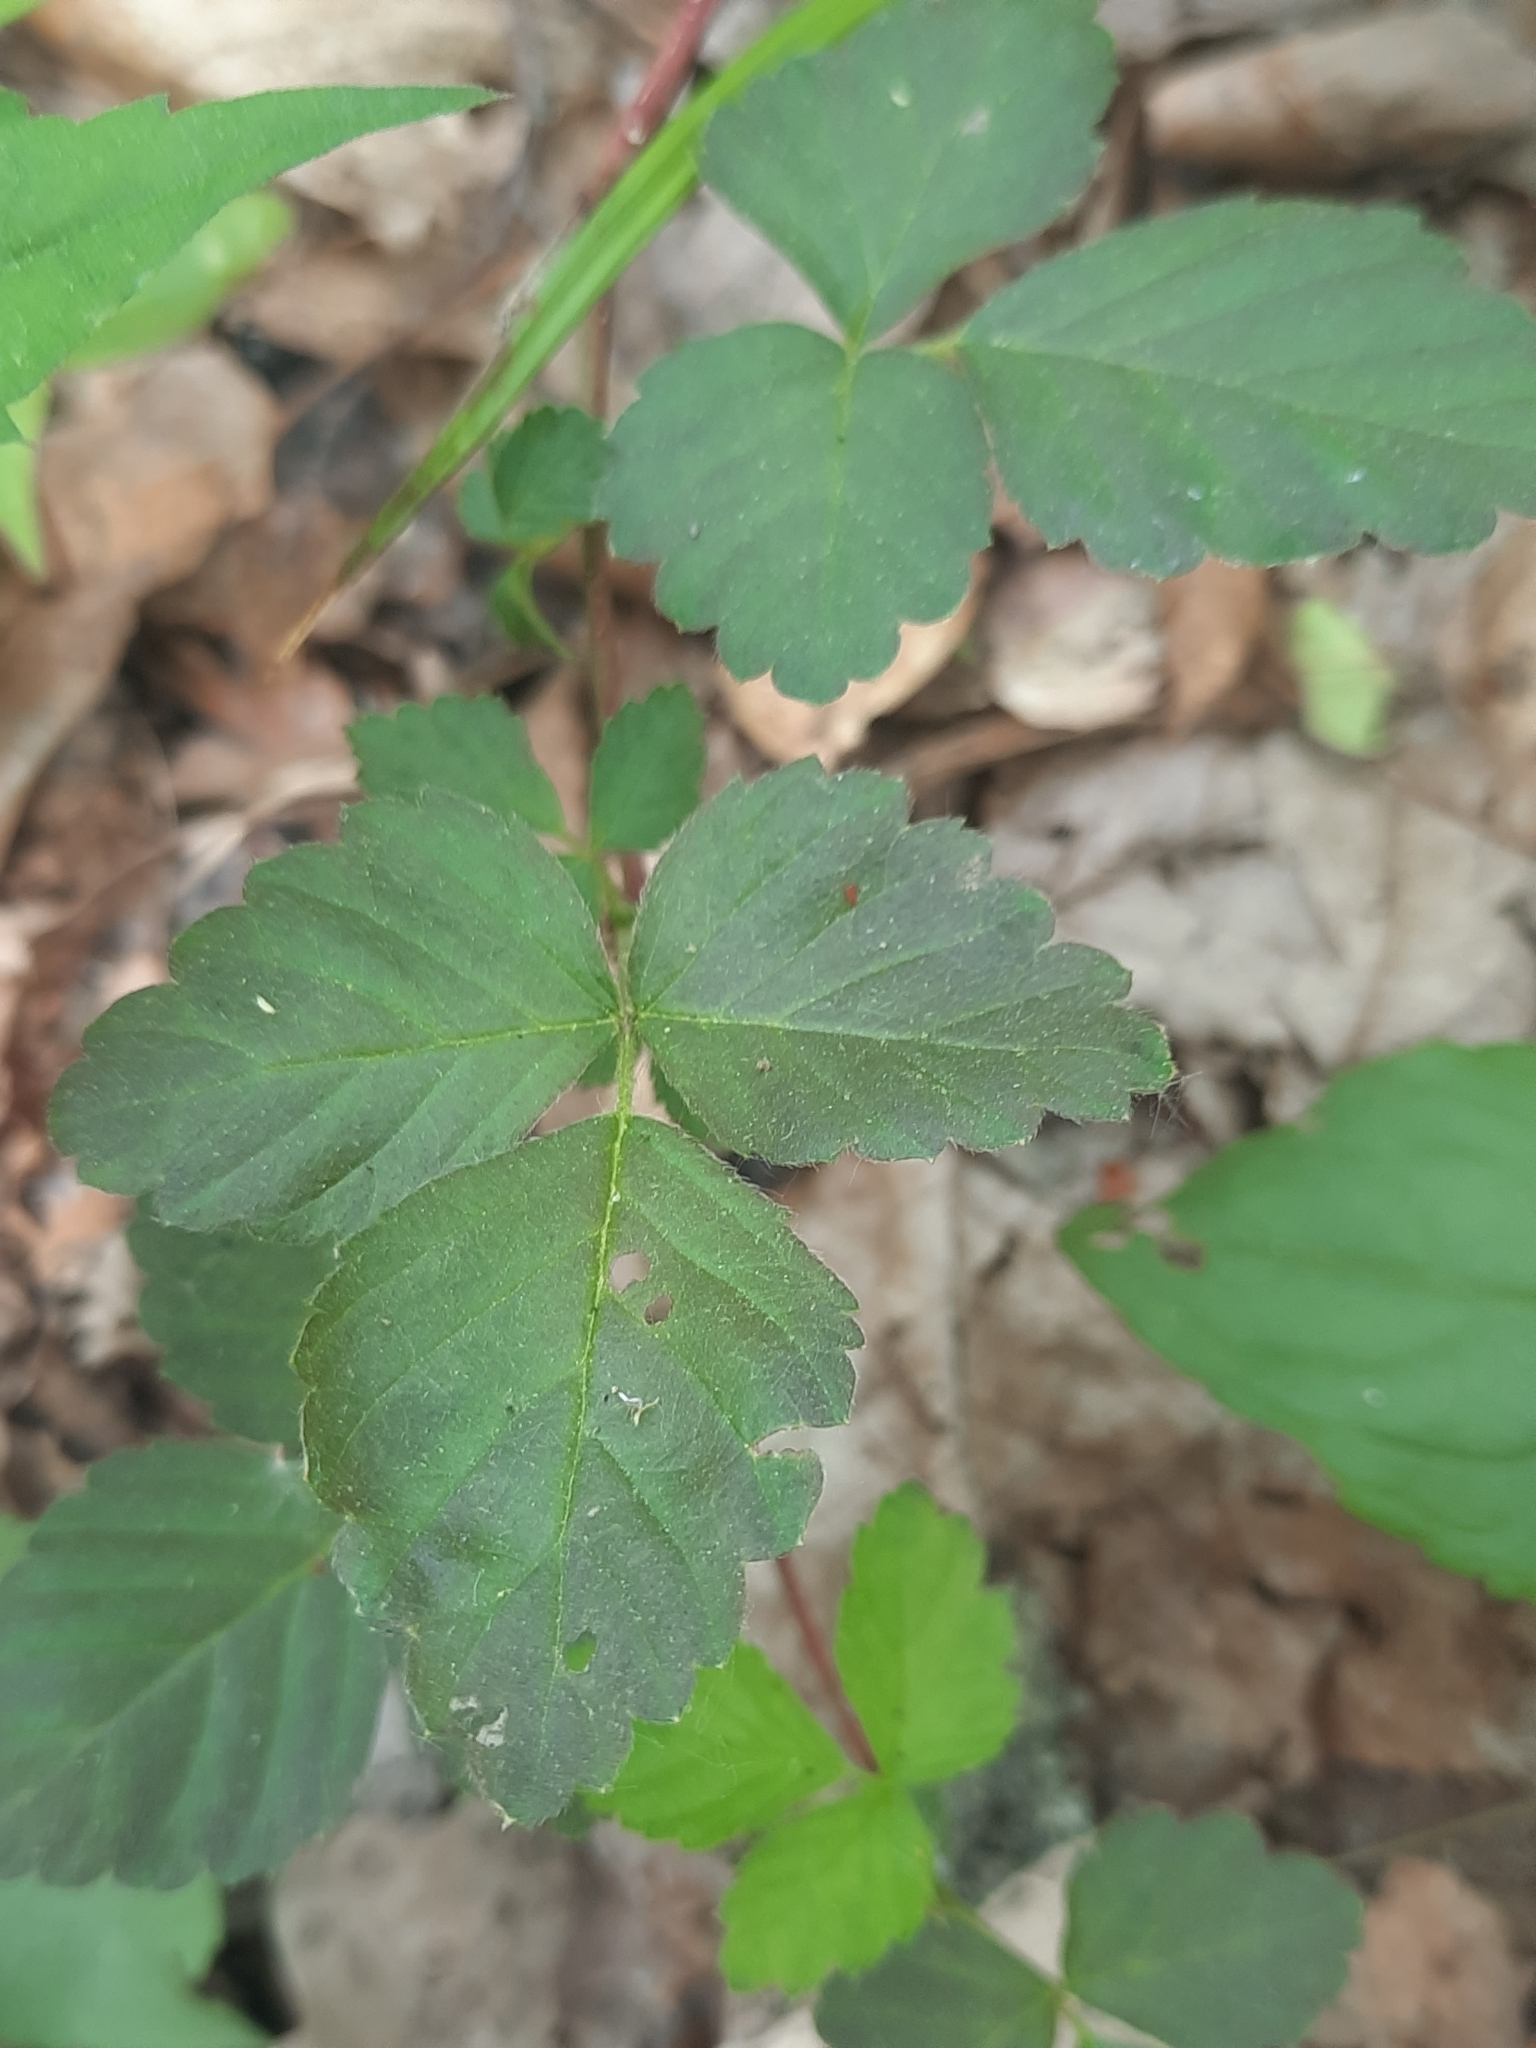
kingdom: Plantae
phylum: Tracheophyta
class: Magnoliopsida
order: Rosales
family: Rosaceae
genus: Rubus
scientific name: Rubus flagellaris
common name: American dewberry
